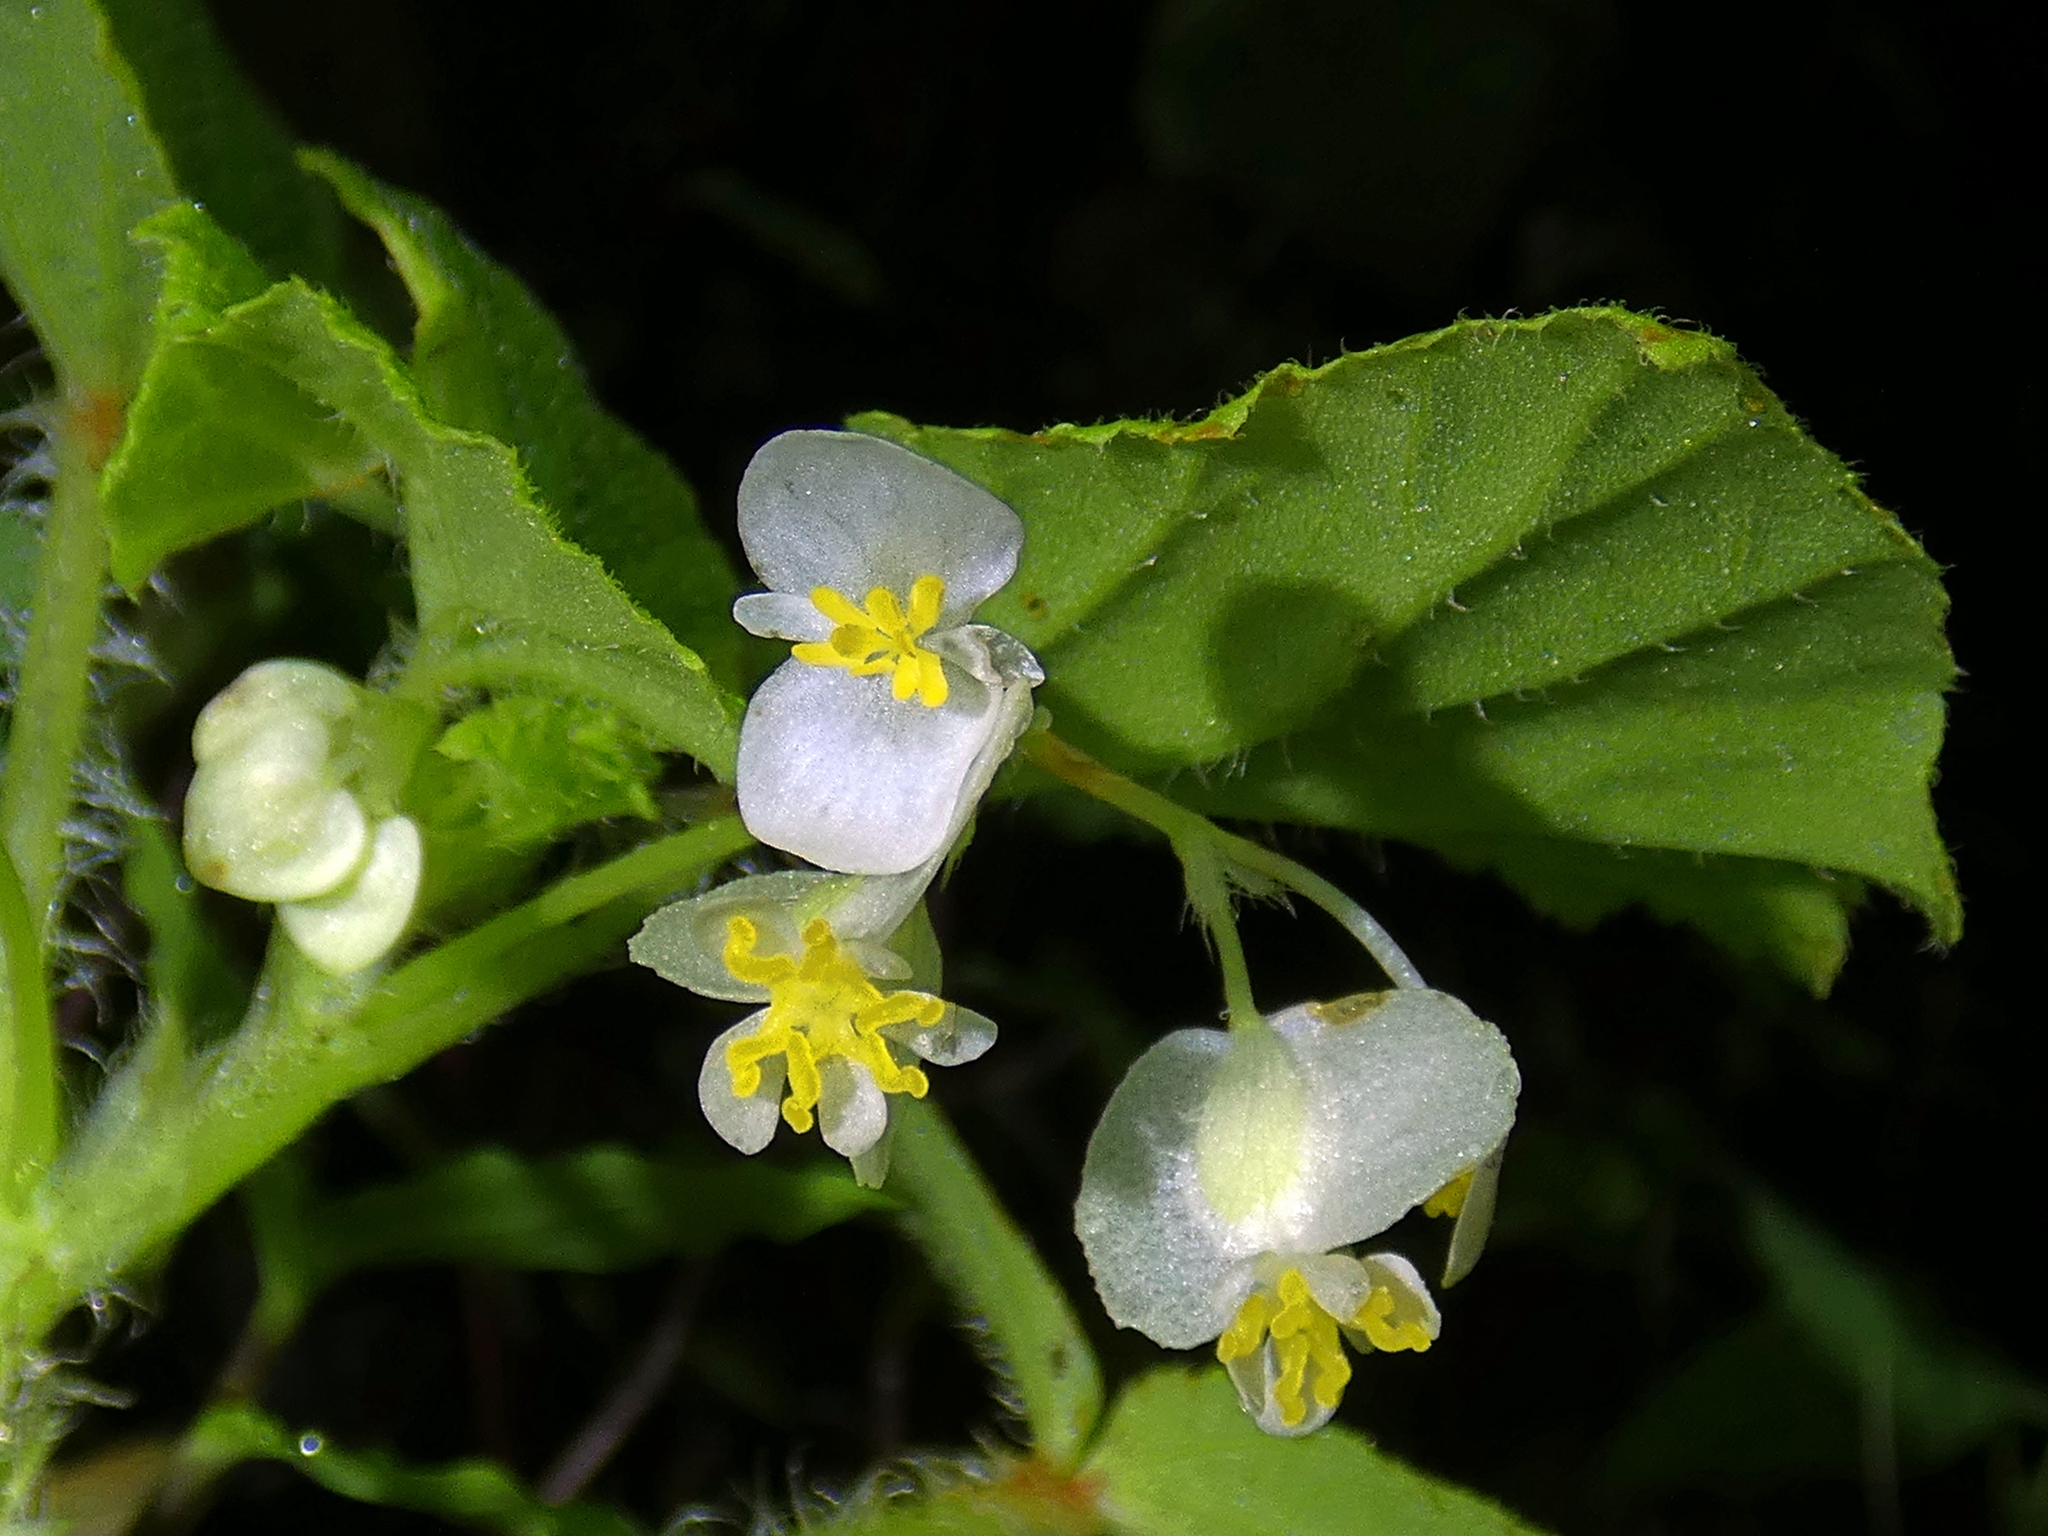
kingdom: Plantae
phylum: Tracheophyta
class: Magnoliopsida
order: Cucurbitales
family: Begoniaceae
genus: Begonia
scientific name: Begonia hirtella
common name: Brazilian begonia
